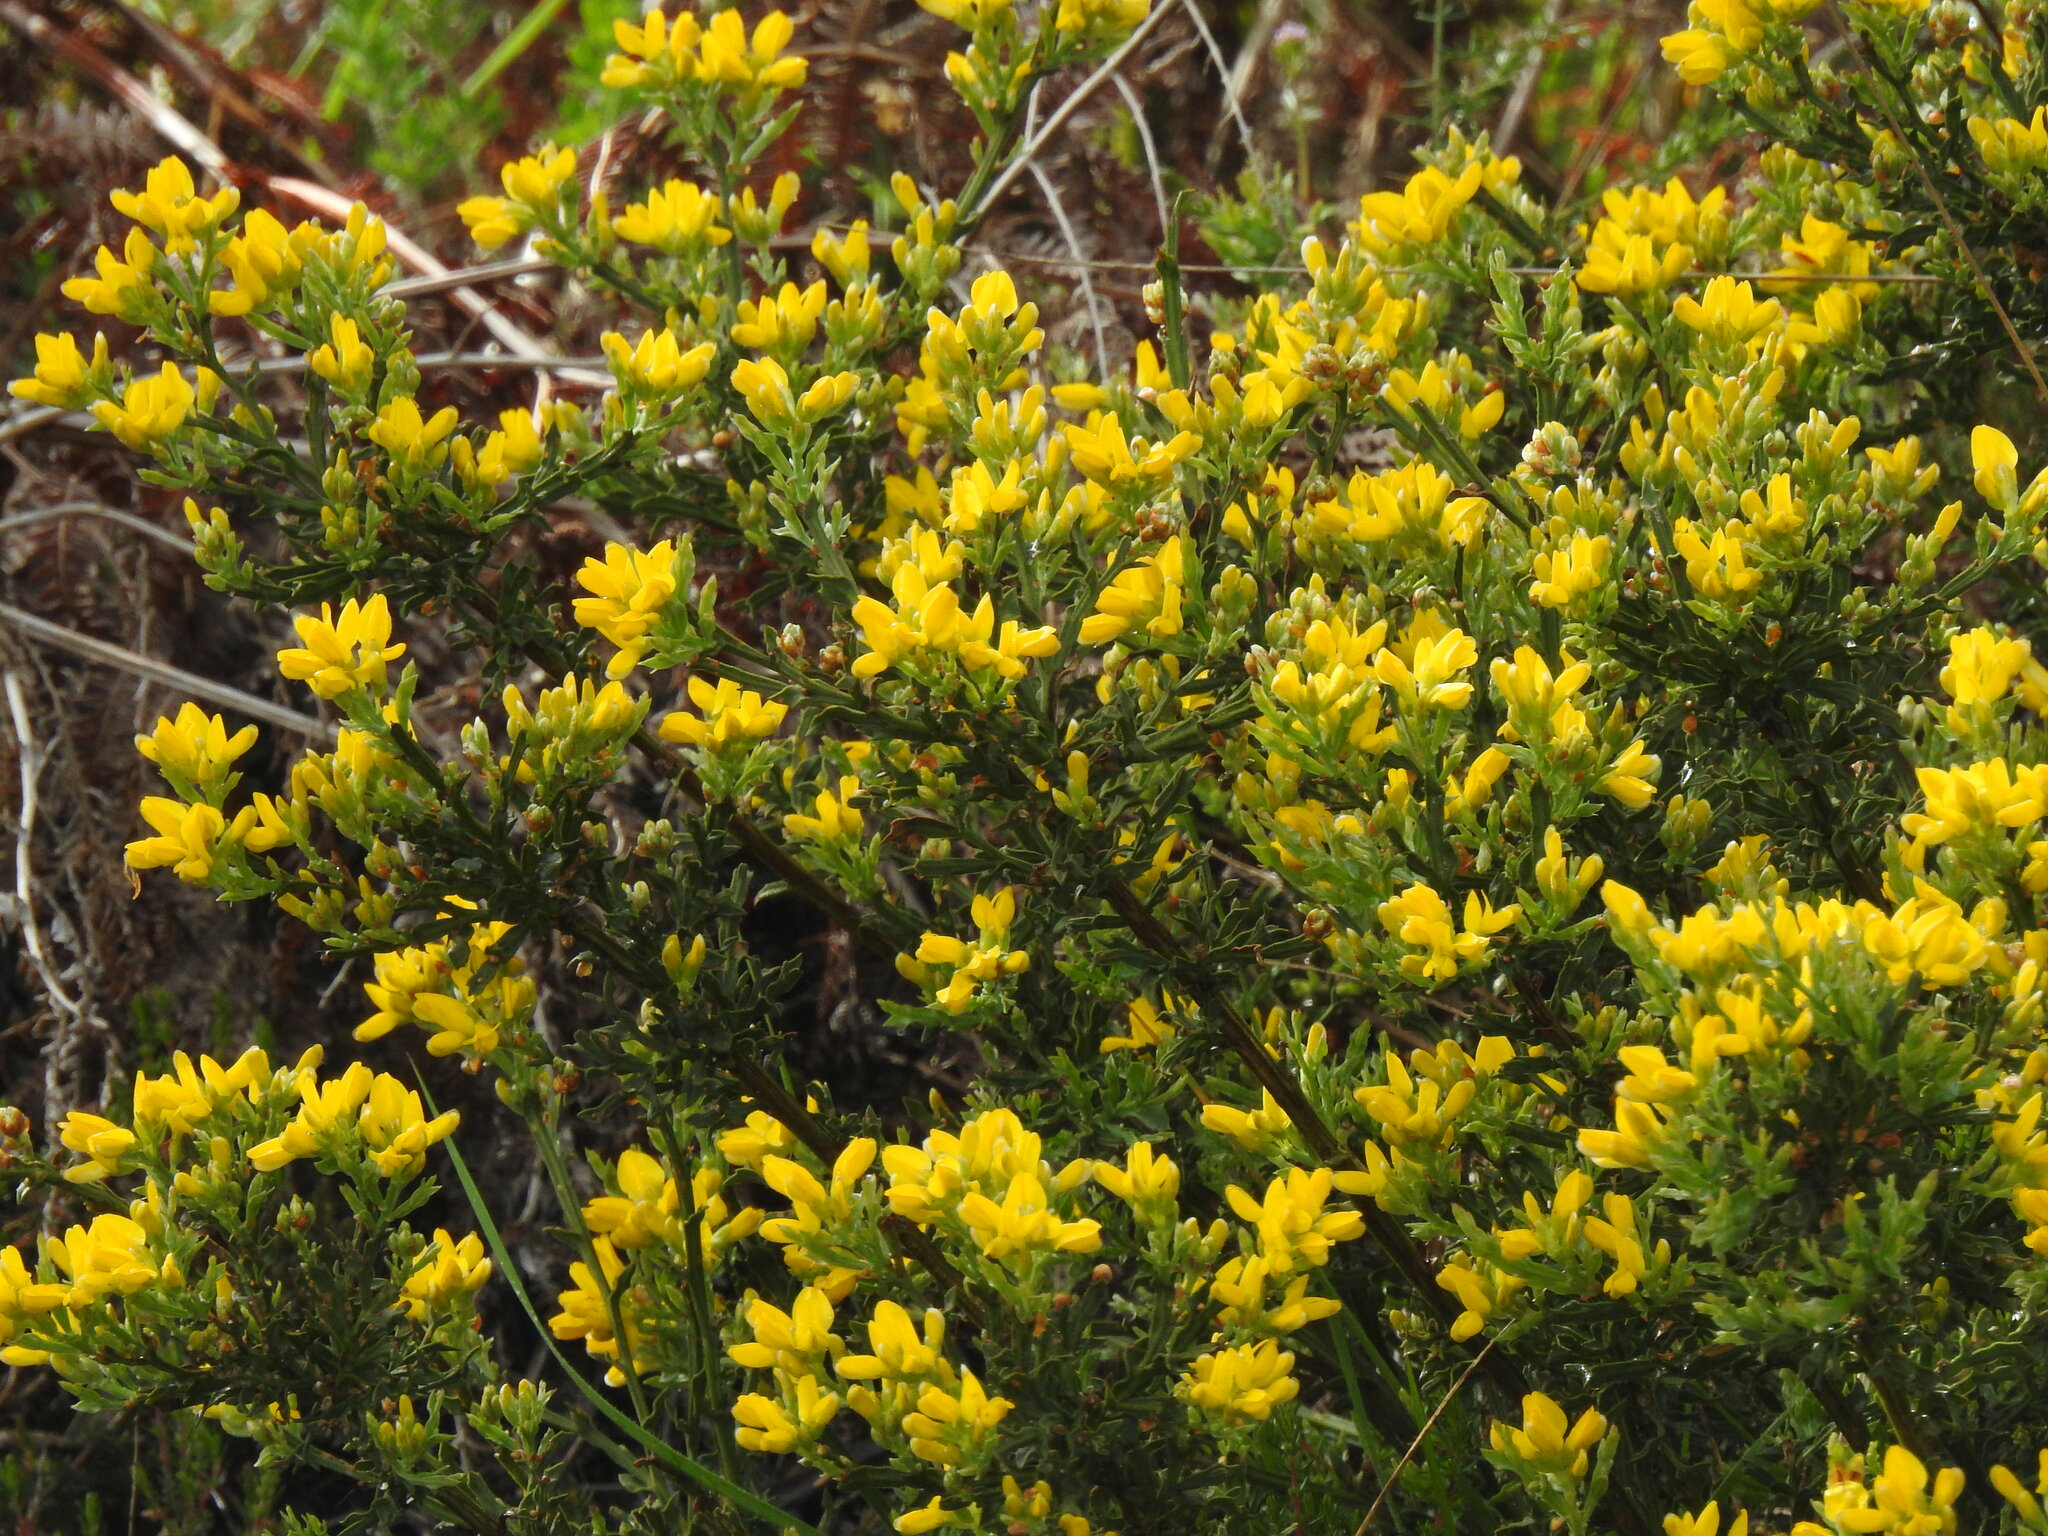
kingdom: Plantae
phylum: Tracheophyta
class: Magnoliopsida
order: Fabales
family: Fabaceae
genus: Genista
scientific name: Genista tridentata
